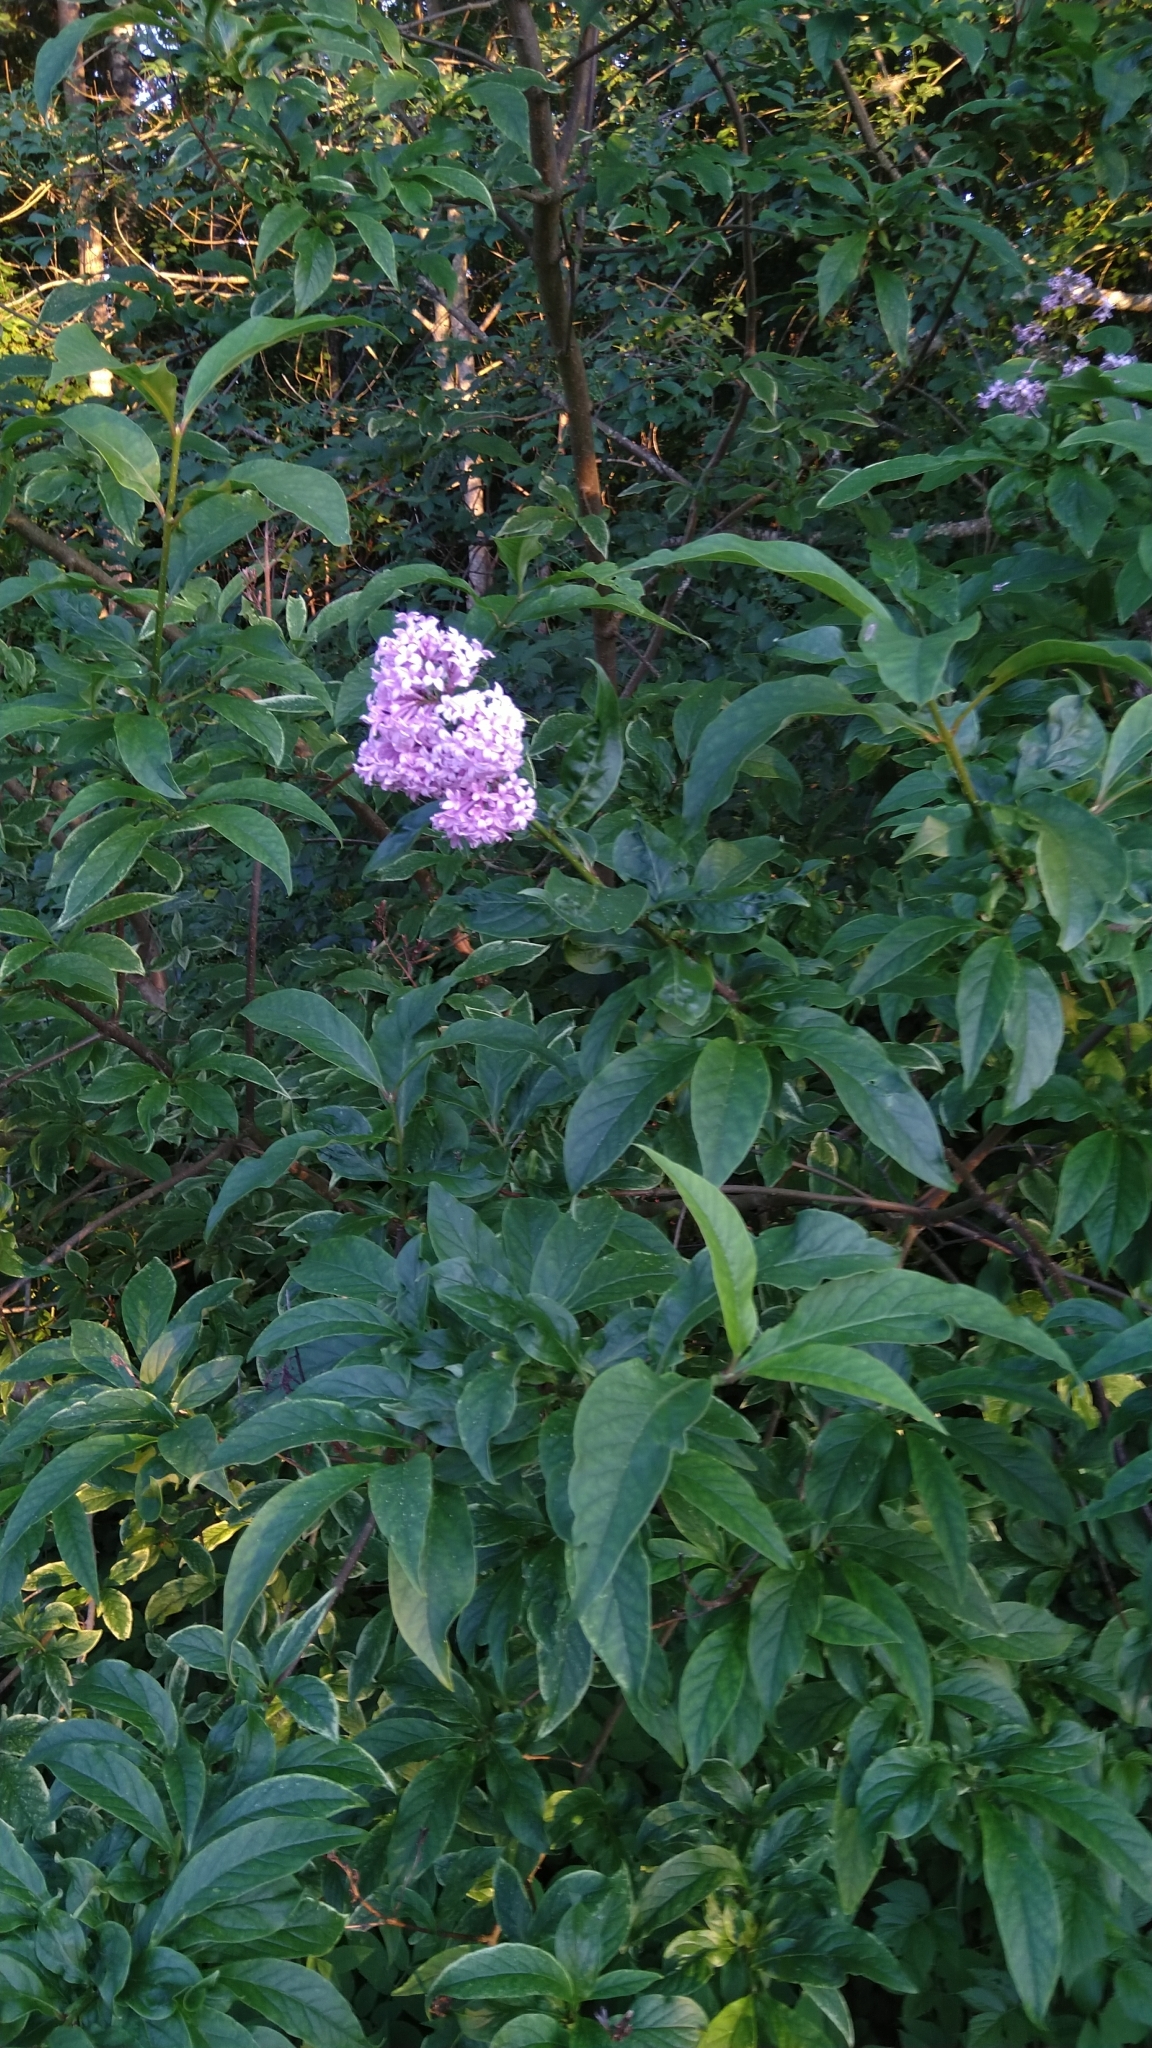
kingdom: Plantae
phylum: Tracheophyta
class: Magnoliopsida
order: Lamiales
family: Oleaceae
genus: Syringa
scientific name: Syringa josikaea
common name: Hungarian lilac
